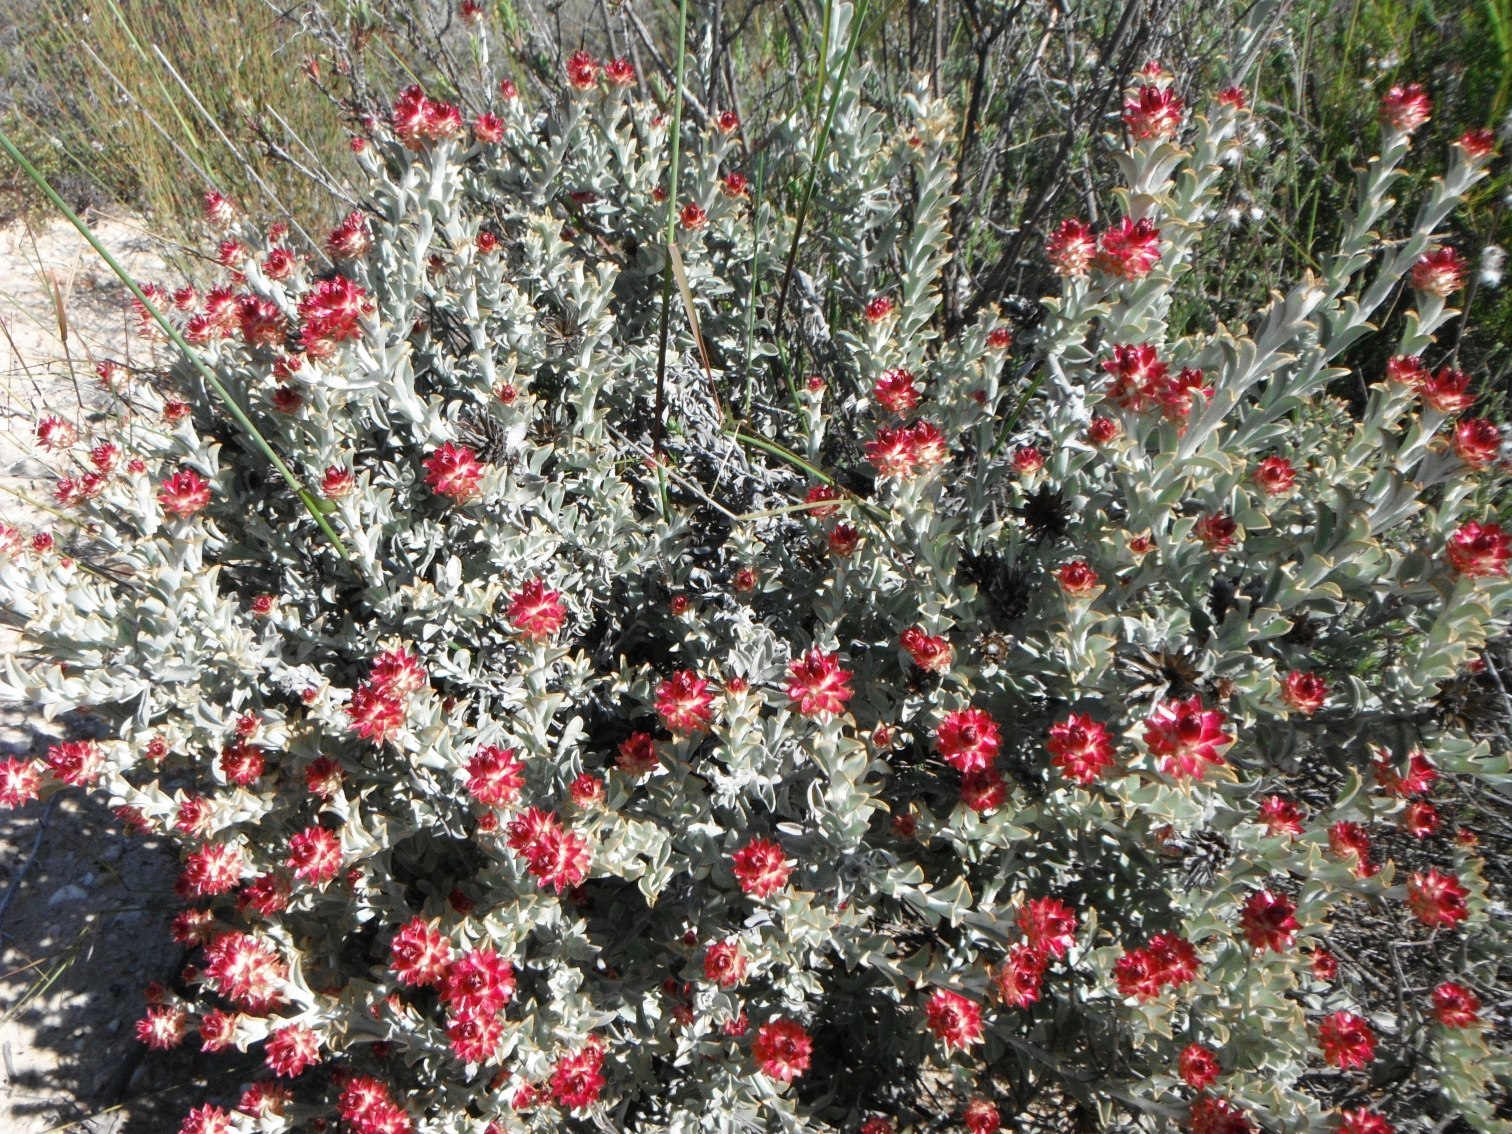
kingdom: Plantae
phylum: Tracheophyta
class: Magnoliopsida
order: Asterales
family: Asteraceae
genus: Syncarpha
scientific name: Syncarpha dregeana
